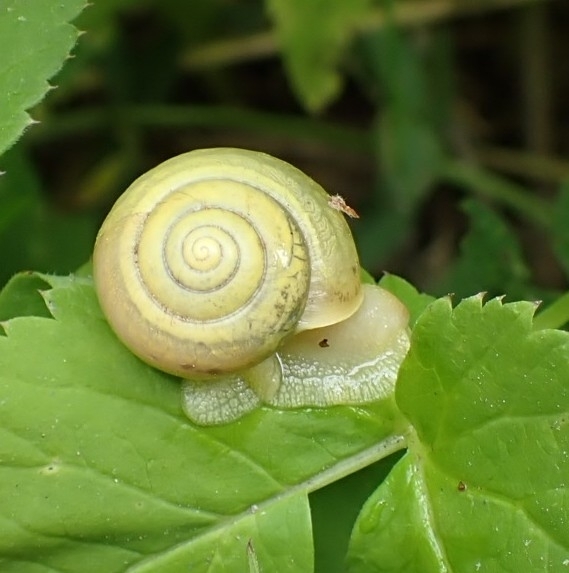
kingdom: Animalia
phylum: Mollusca
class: Gastropoda
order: Stylommatophora
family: Camaenidae
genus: Fruticicola
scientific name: Fruticicola fruticum
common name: Bush snail
